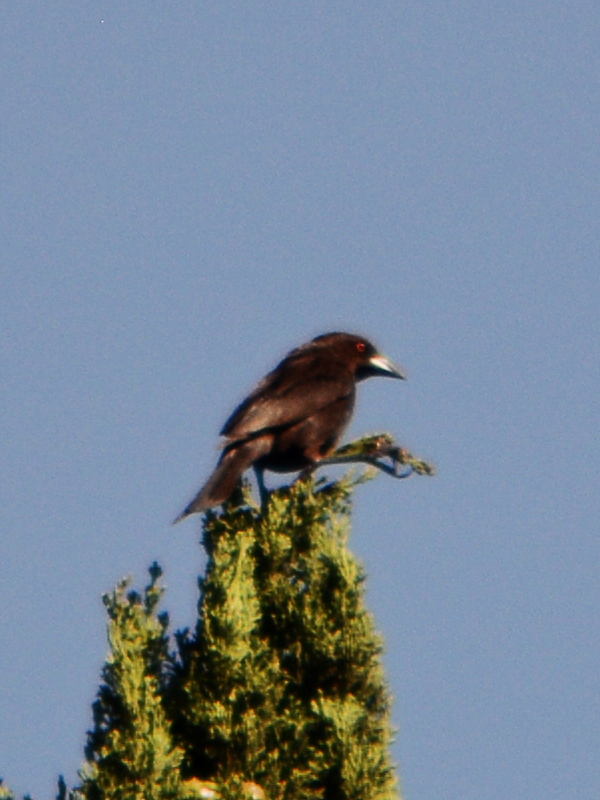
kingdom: Animalia
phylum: Chordata
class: Aves
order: Passeriformes
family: Icteridae
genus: Molothrus
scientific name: Molothrus aeneus
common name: Bronzed cowbird
